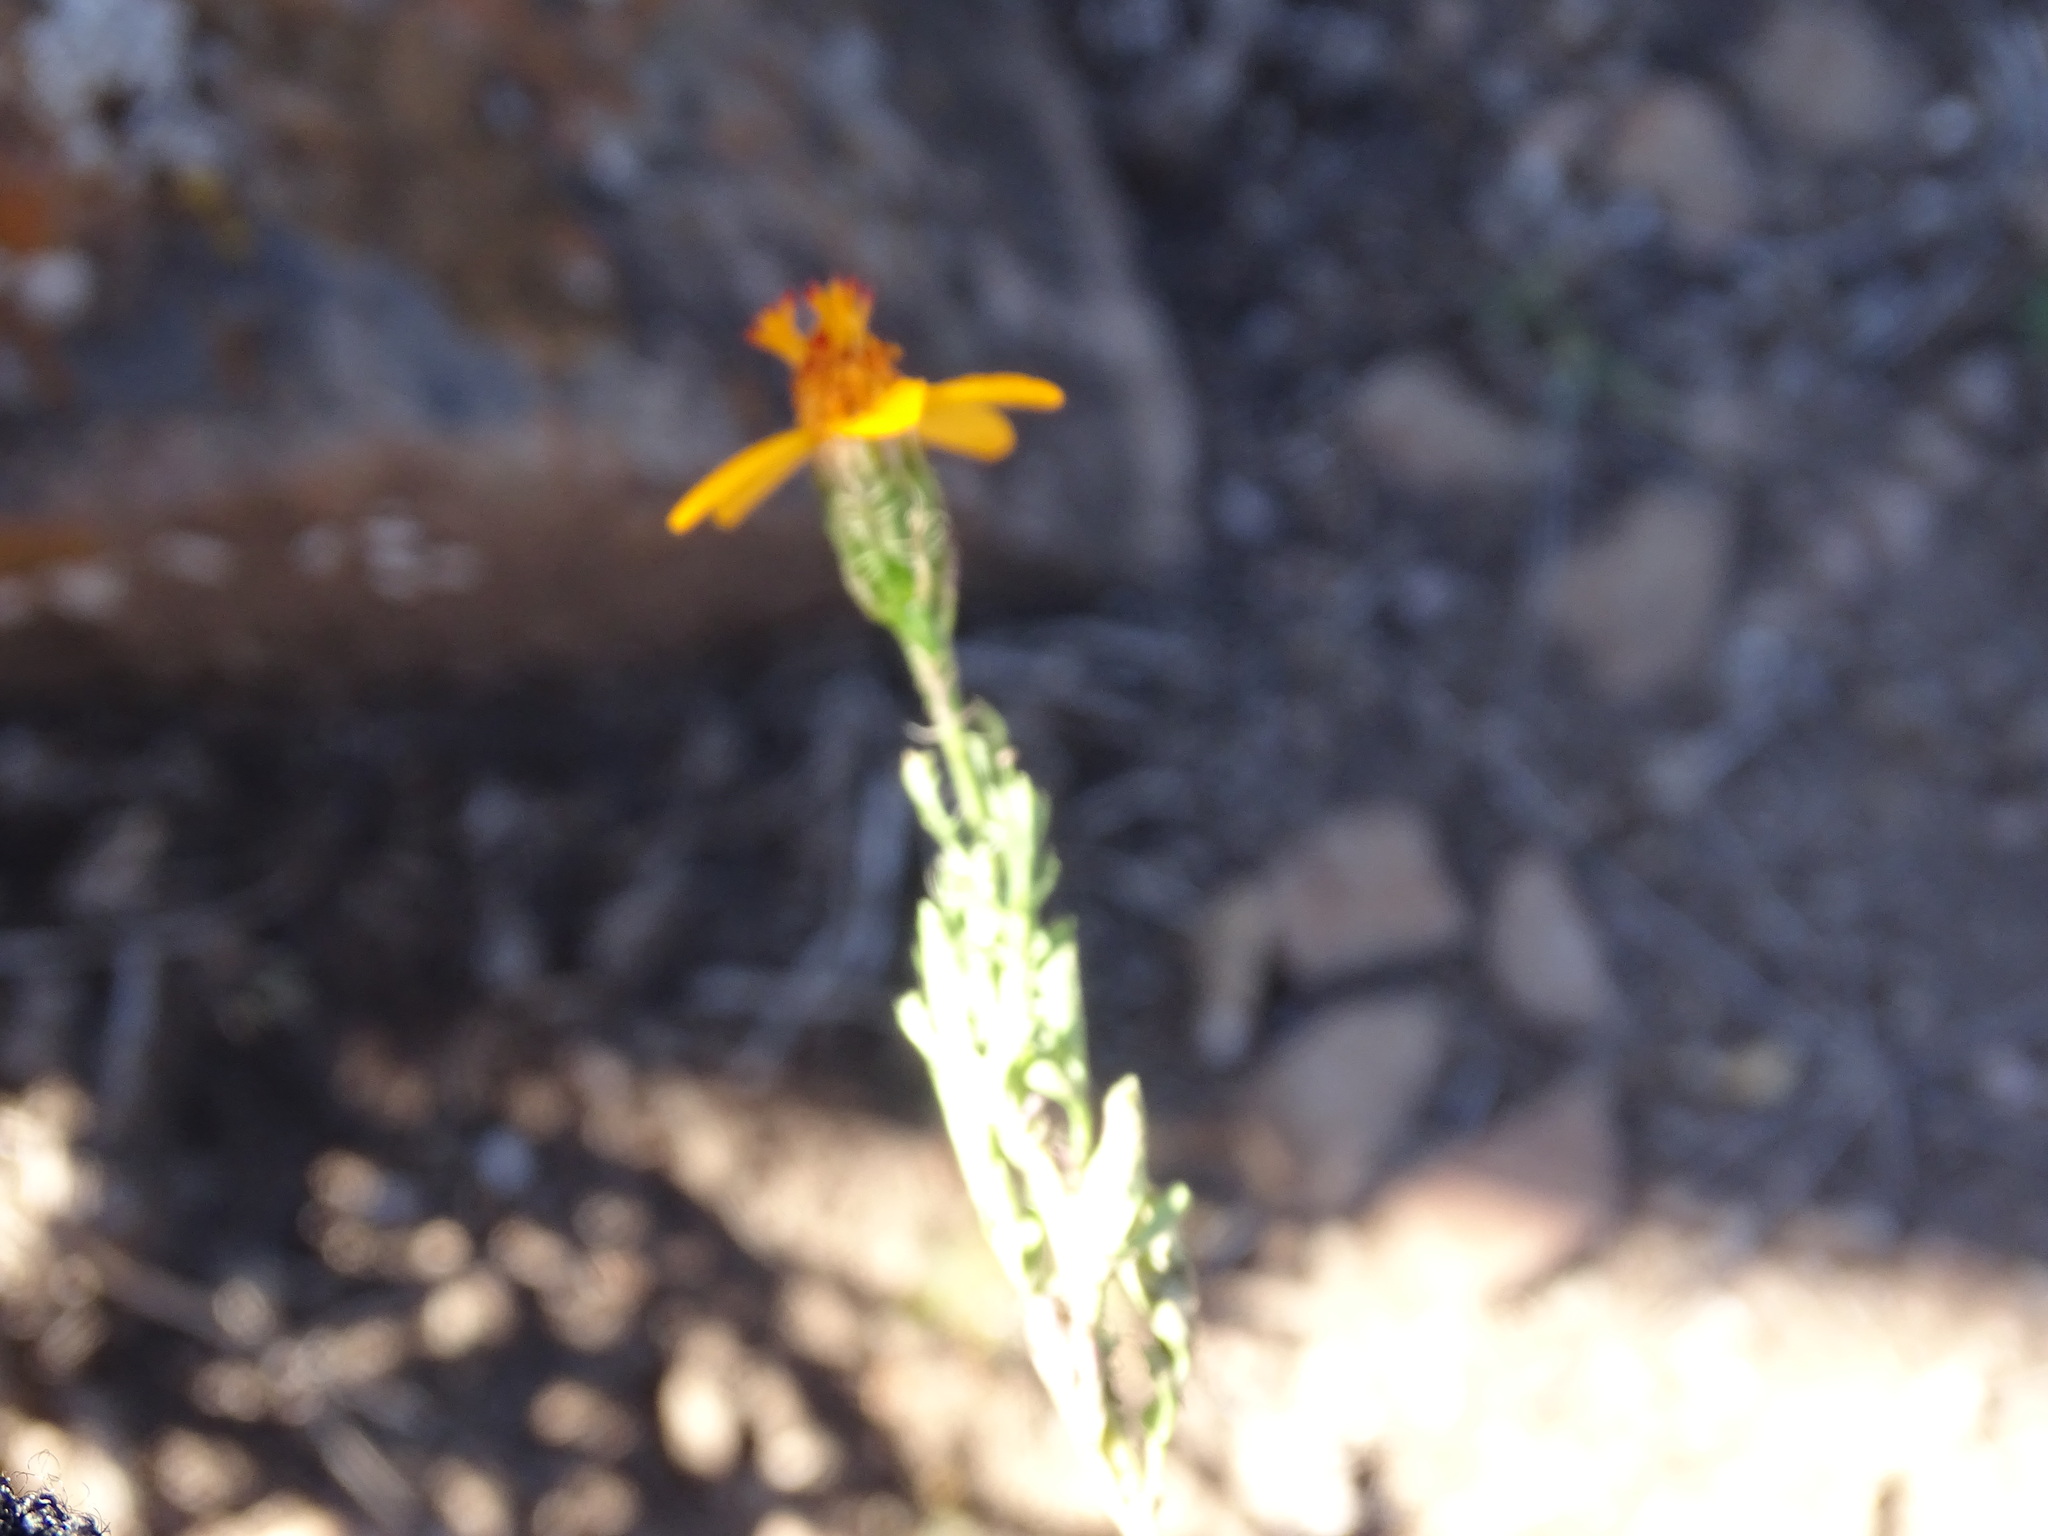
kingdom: Plantae
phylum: Tracheophyta
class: Magnoliopsida
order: Asterales
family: Asteraceae
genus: Adenophyllum
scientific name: Adenophyllum cancellatum
